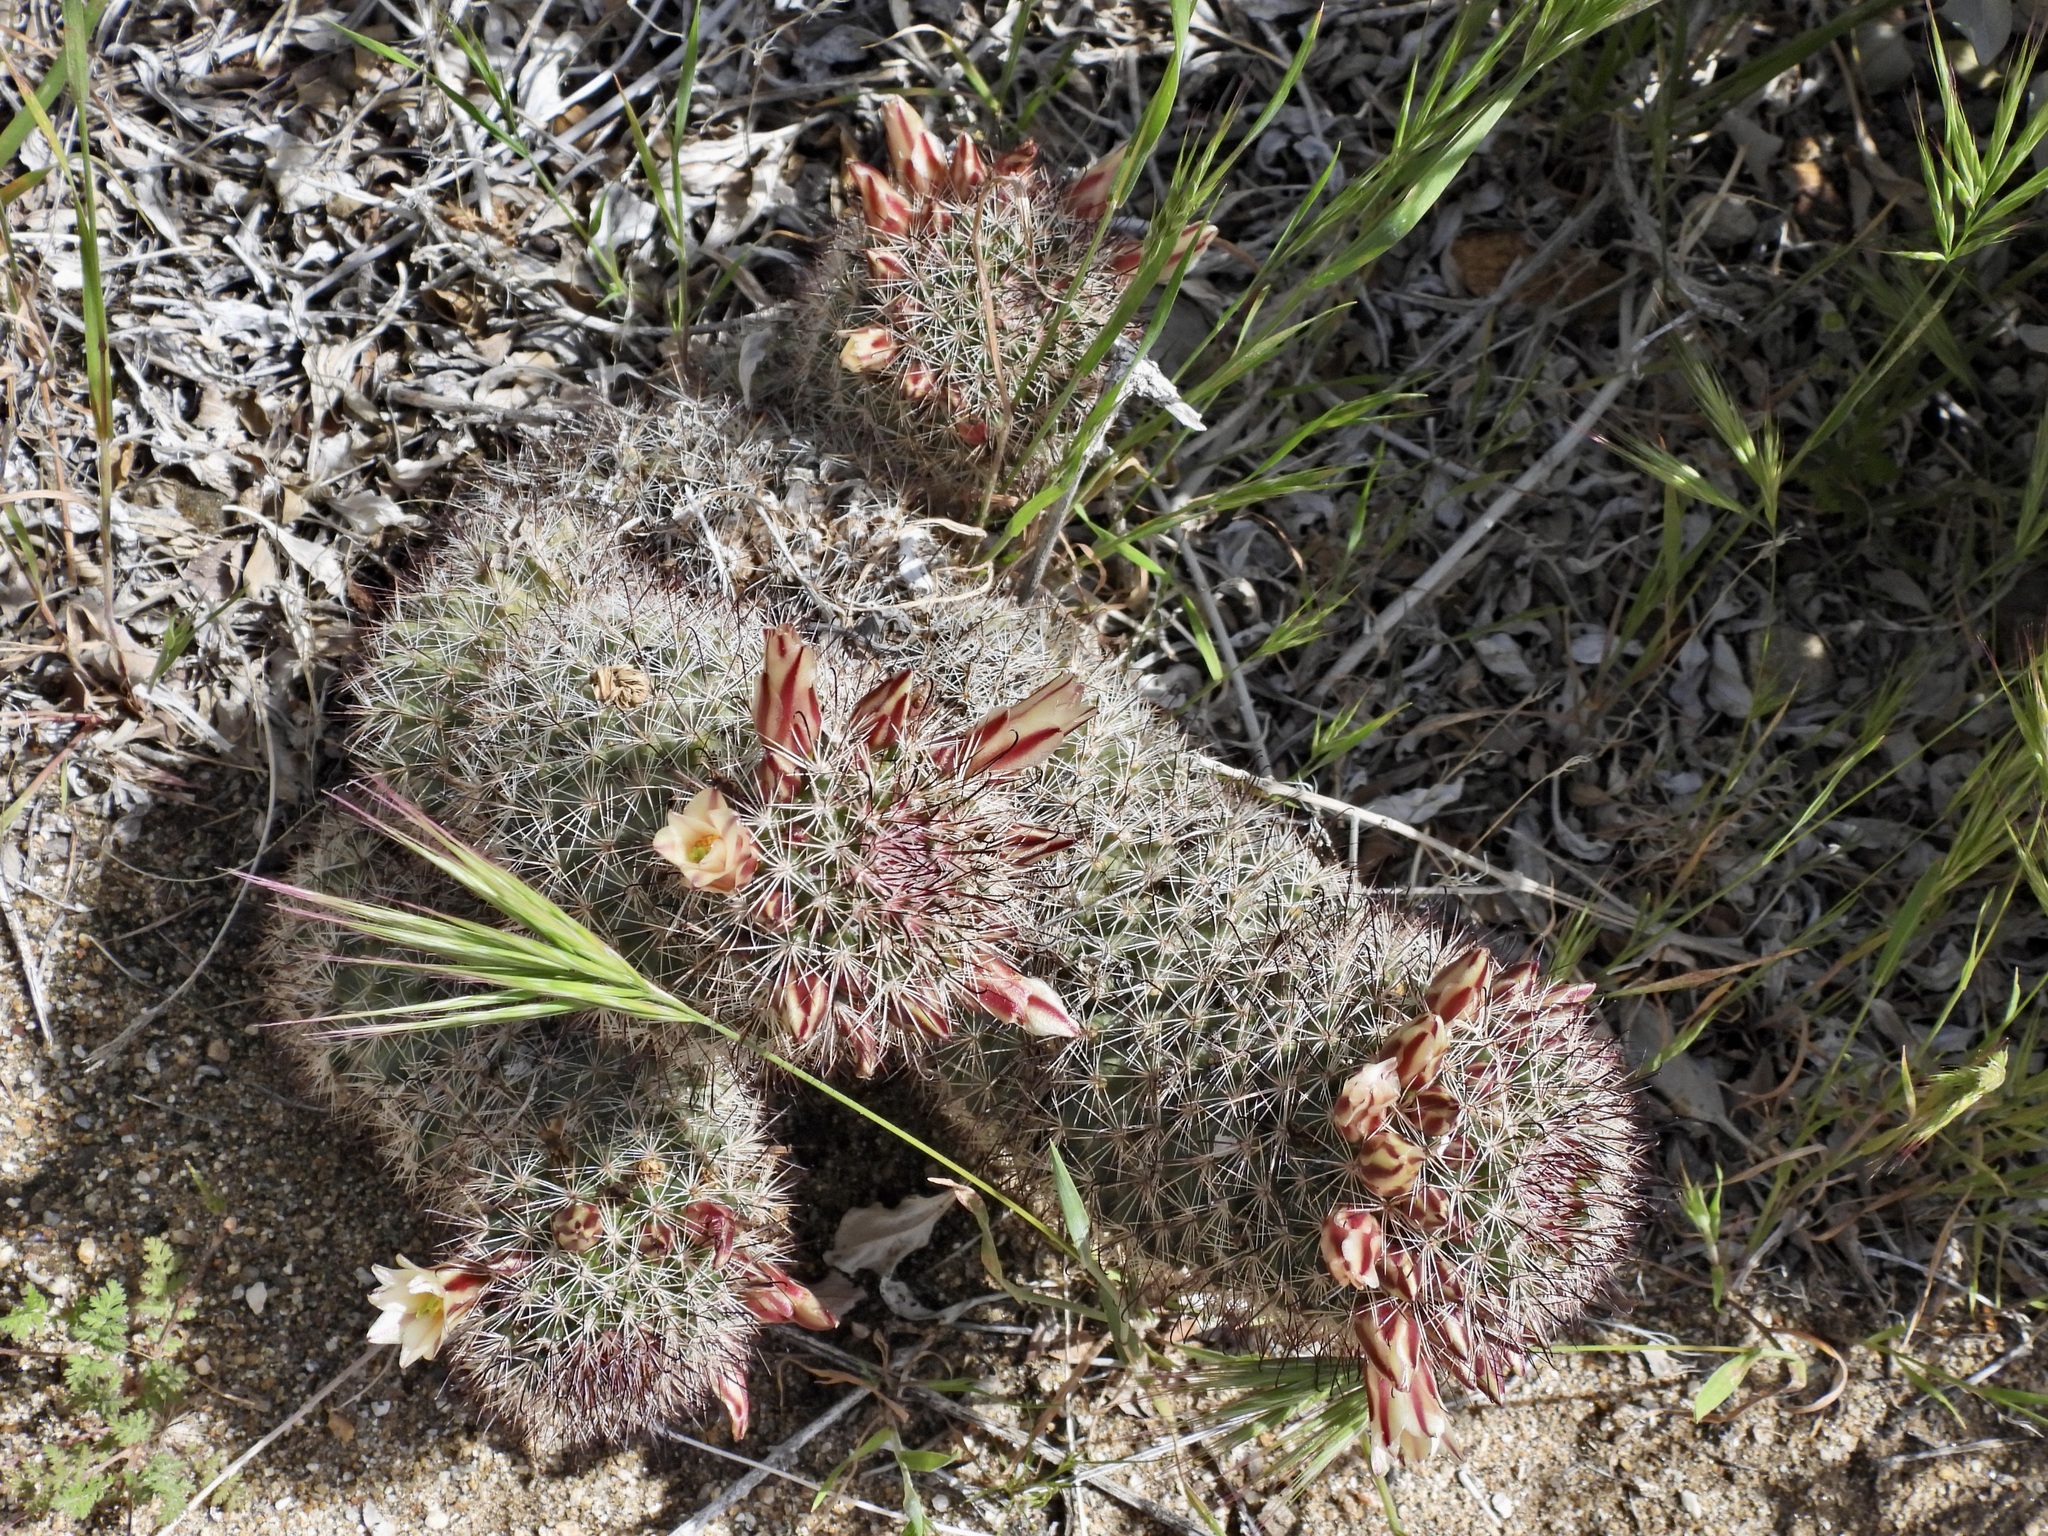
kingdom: Plantae
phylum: Tracheophyta
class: Magnoliopsida
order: Caryophyllales
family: Cactaceae
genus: Cochemiea
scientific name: Cochemiea dioica
